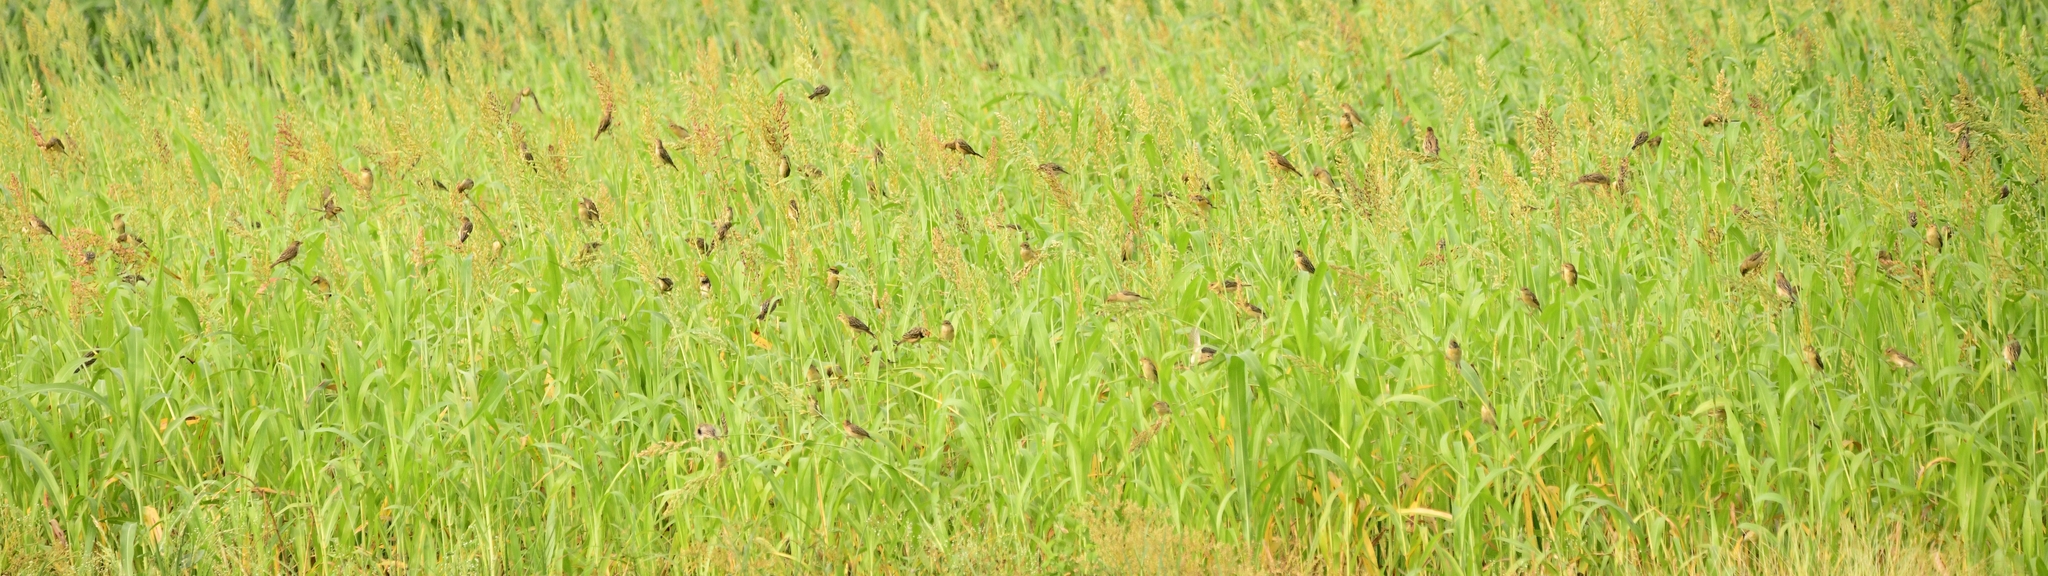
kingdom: Animalia
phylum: Chordata
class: Aves
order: Passeriformes
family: Ploceidae
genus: Ploceus
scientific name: Ploceus philippinus
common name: Baya weaver
